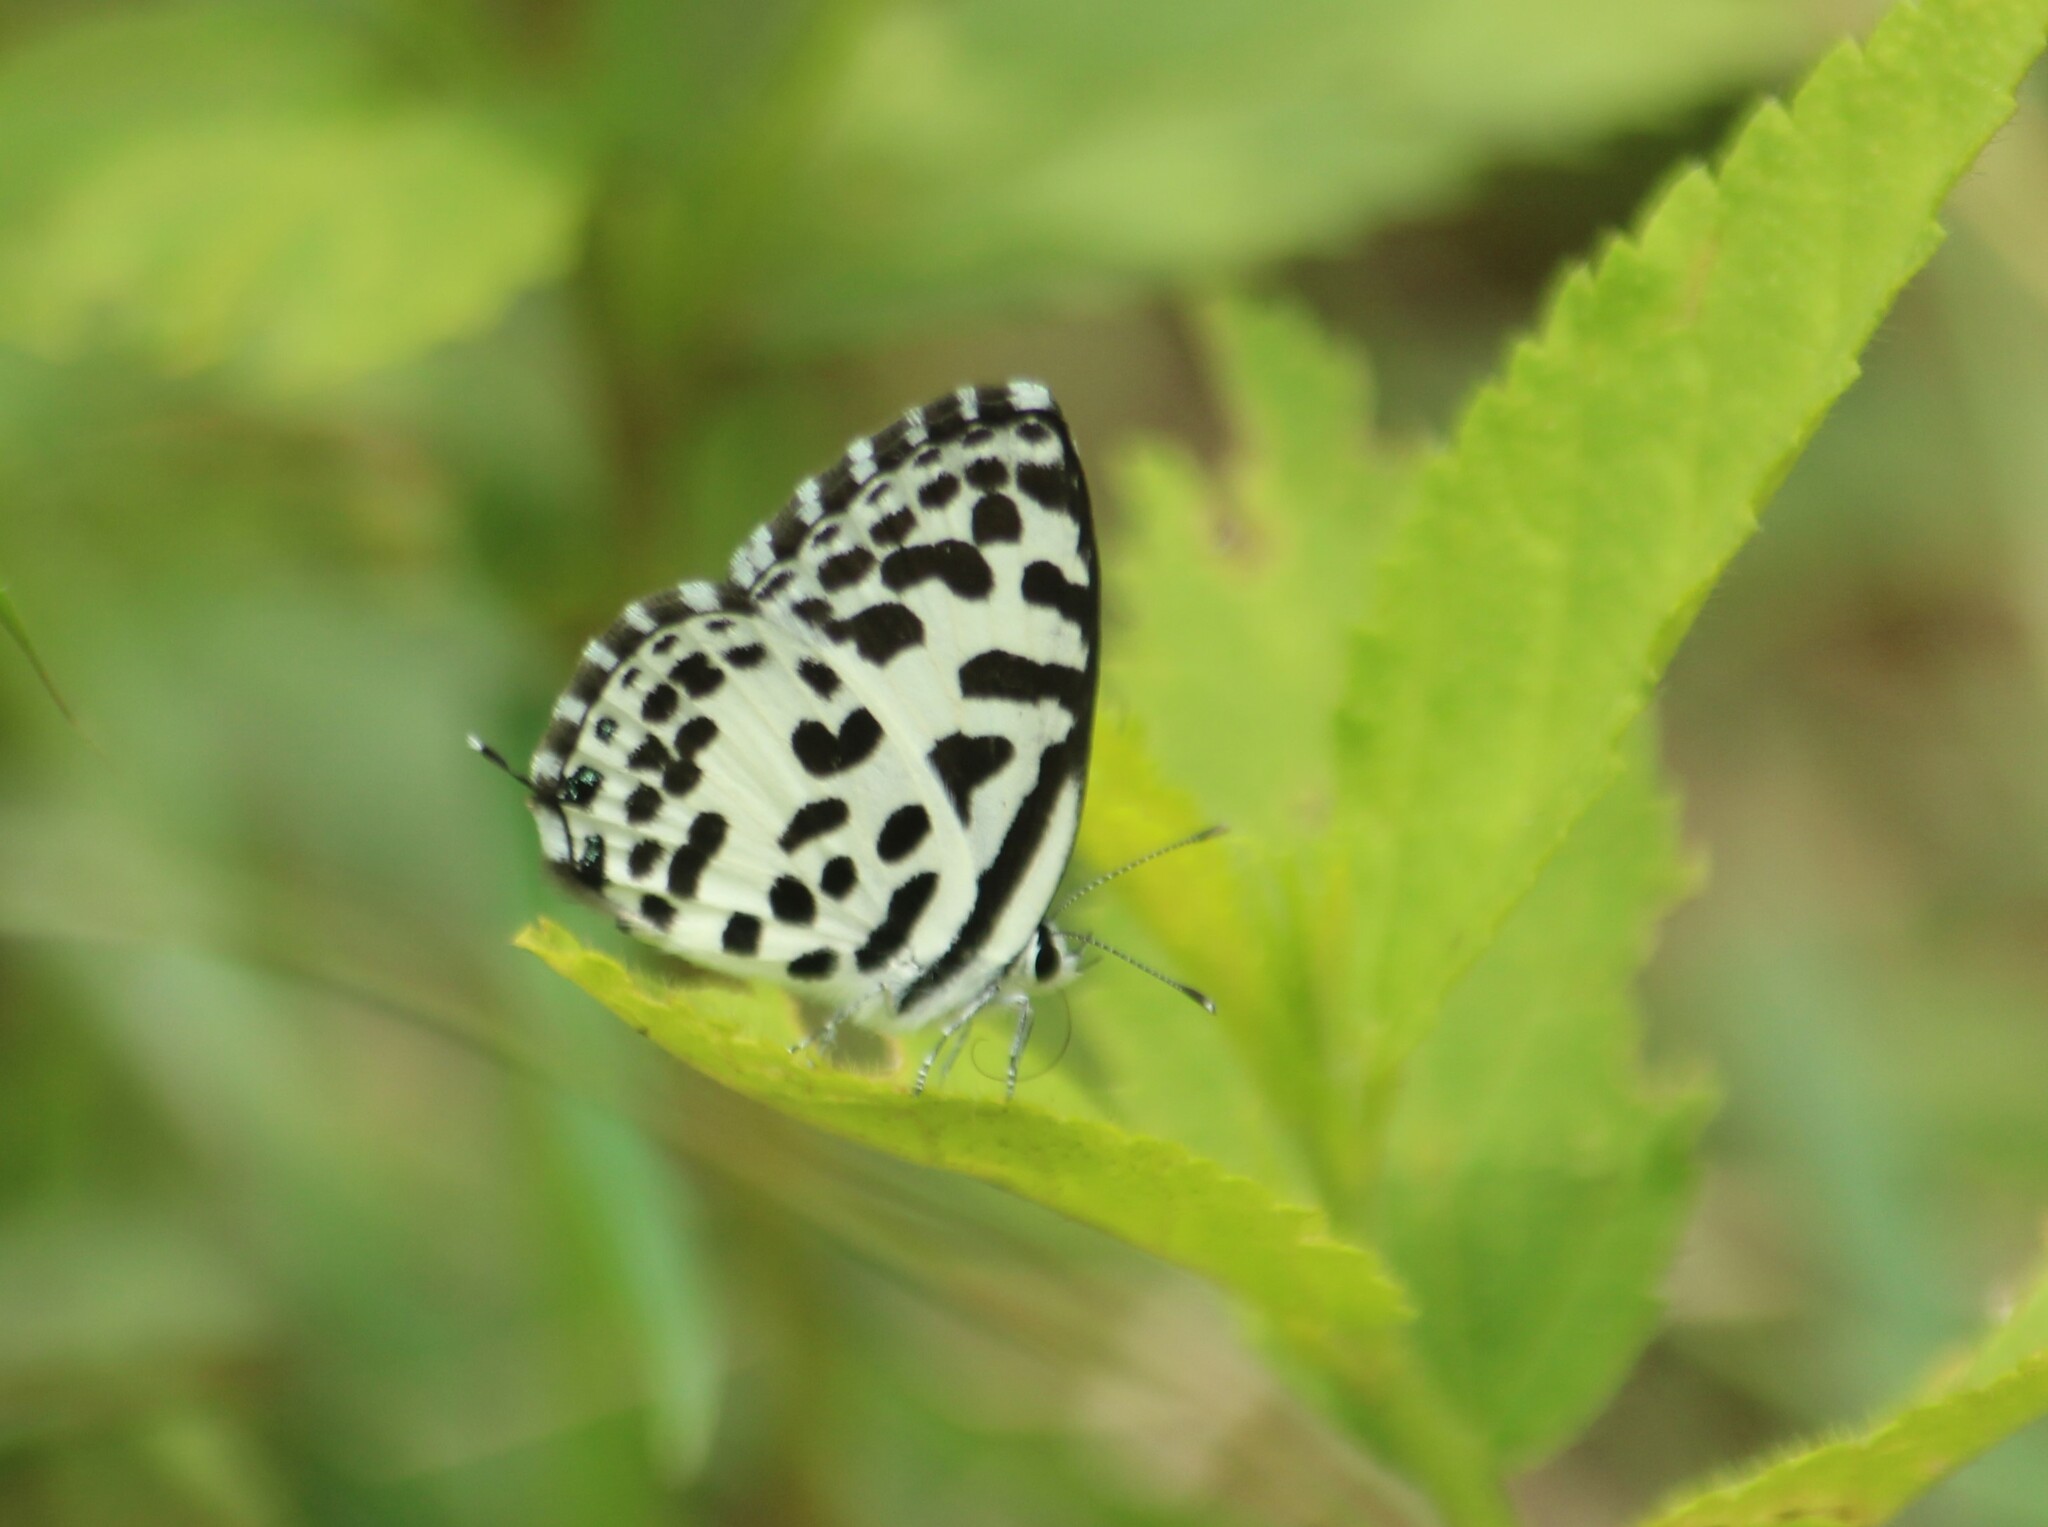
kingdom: Animalia
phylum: Arthropoda
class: Insecta
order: Lepidoptera
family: Lycaenidae
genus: Castalius
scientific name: Castalius rosimon
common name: Common pierrot
